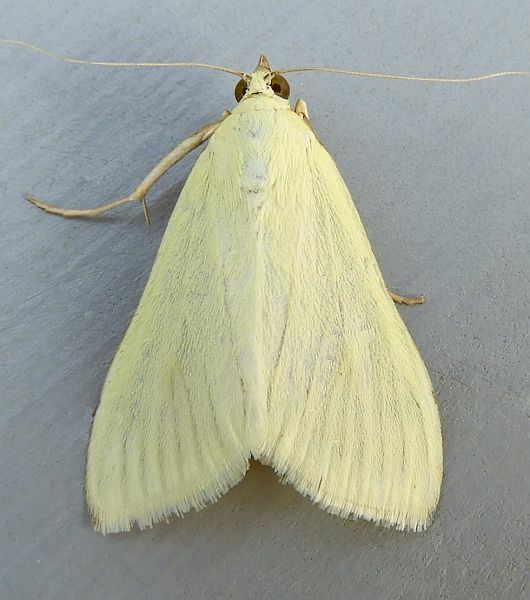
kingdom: Animalia
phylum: Arthropoda
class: Insecta
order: Lepidoptera
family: Crambidae
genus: Sitochroa
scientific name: Sitochroa palealis
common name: Greenish-yellow sitochroa moth
